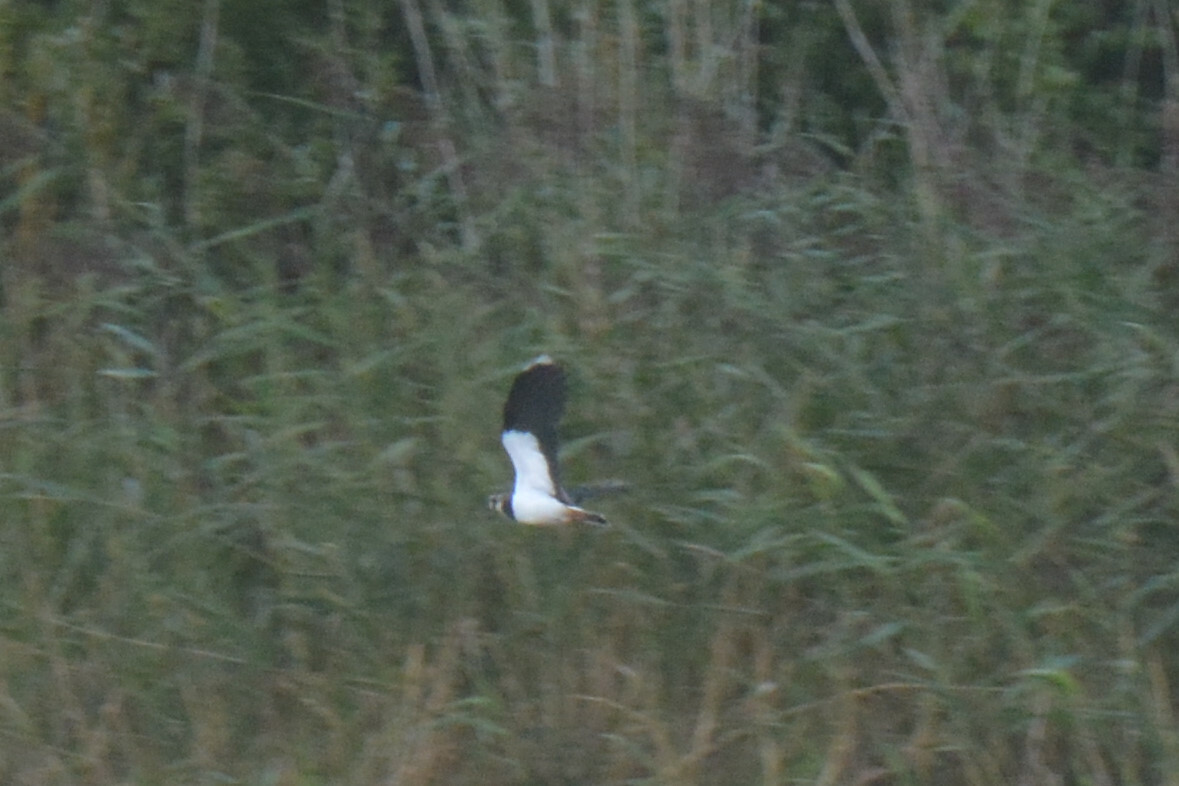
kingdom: Animalia
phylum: Chordata
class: Aves
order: Charadriiformes
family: Charadriidae
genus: Vanellus
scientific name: Vanellus vanellus
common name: Northern lapwing
